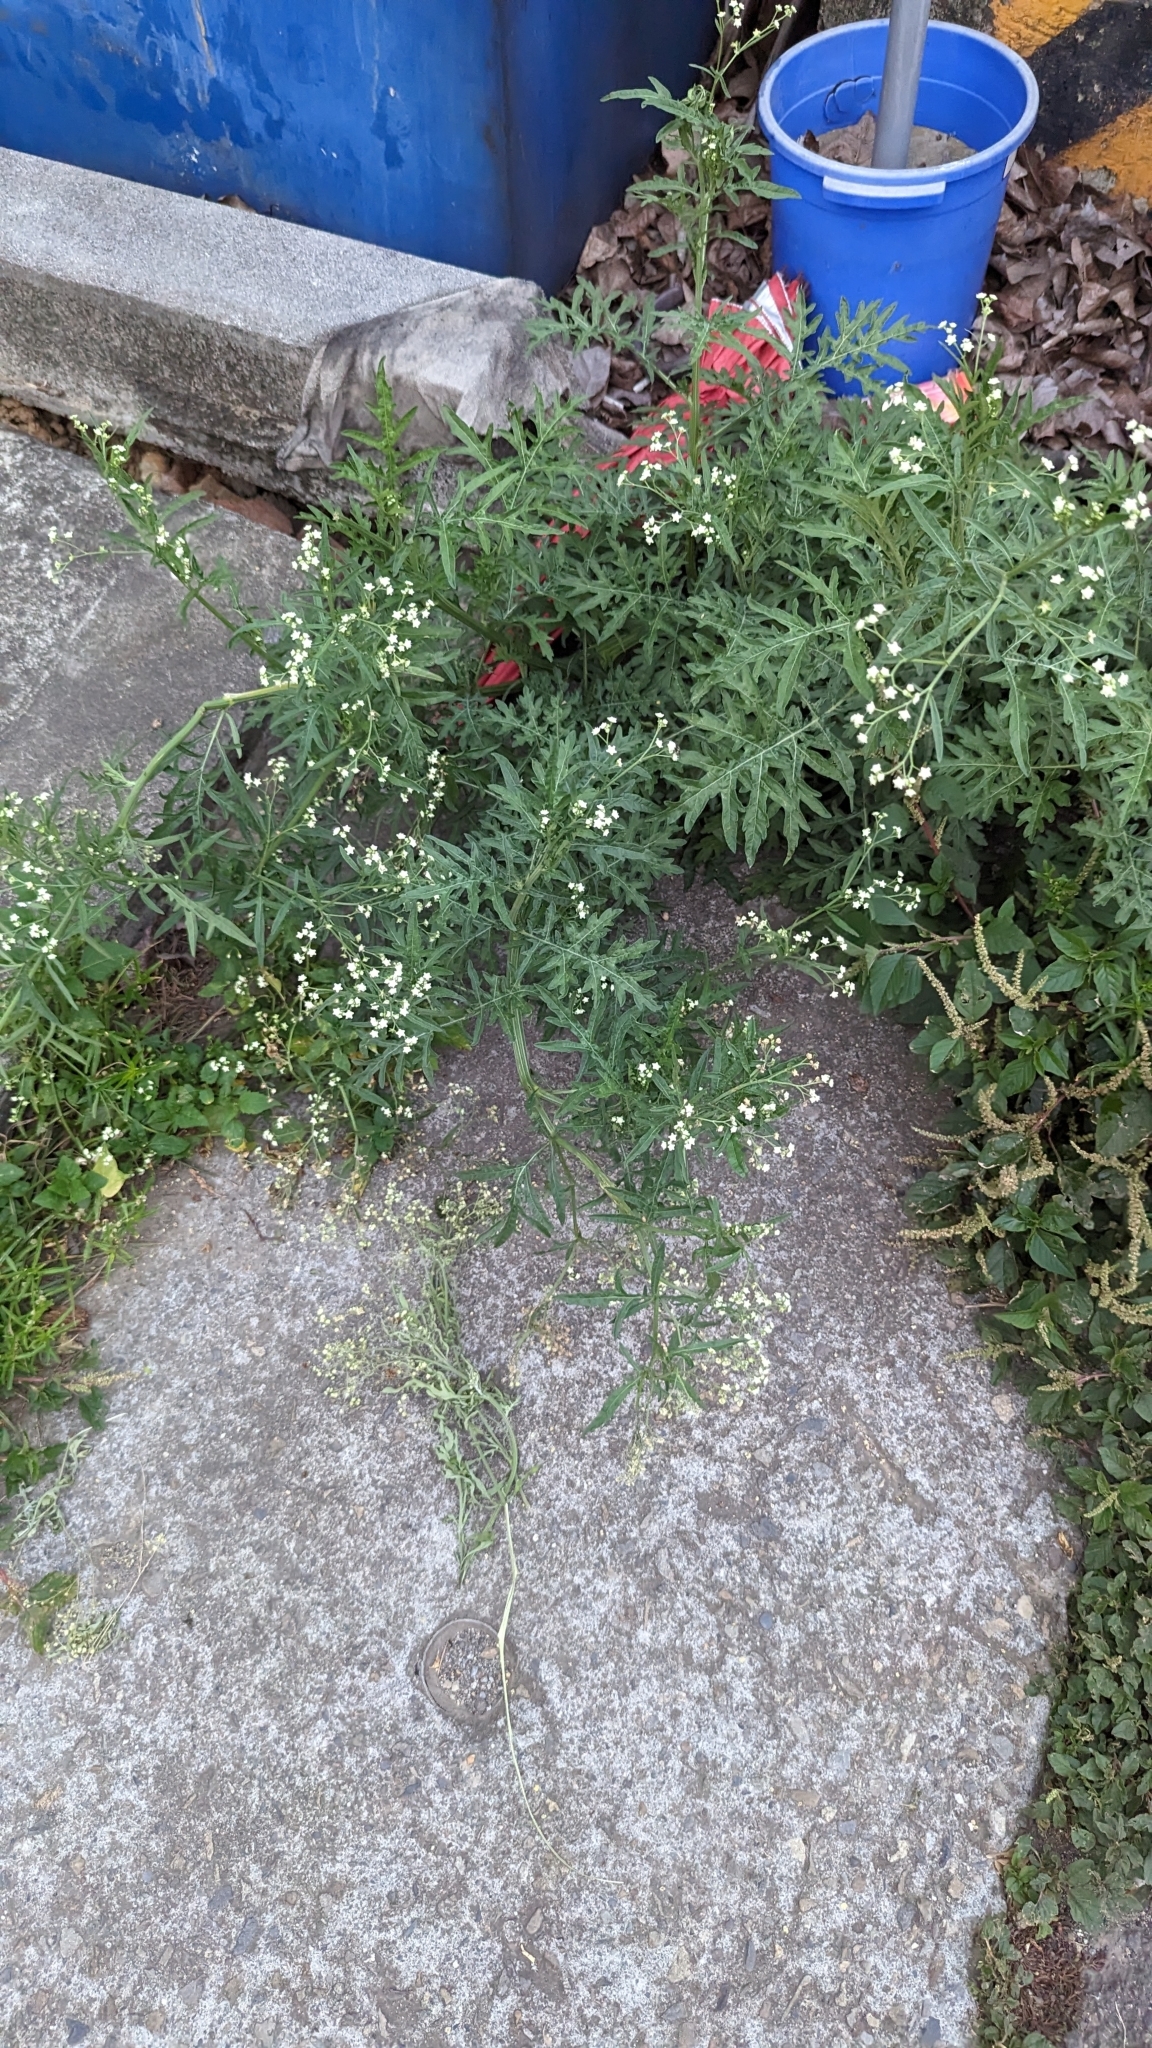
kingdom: Plantae
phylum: Tracheophyta
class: Magnoliopsida
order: Asterales
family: Asteraceae
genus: Parthenium
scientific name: Parthenium hysterophorus
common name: Santa maria feverfew
